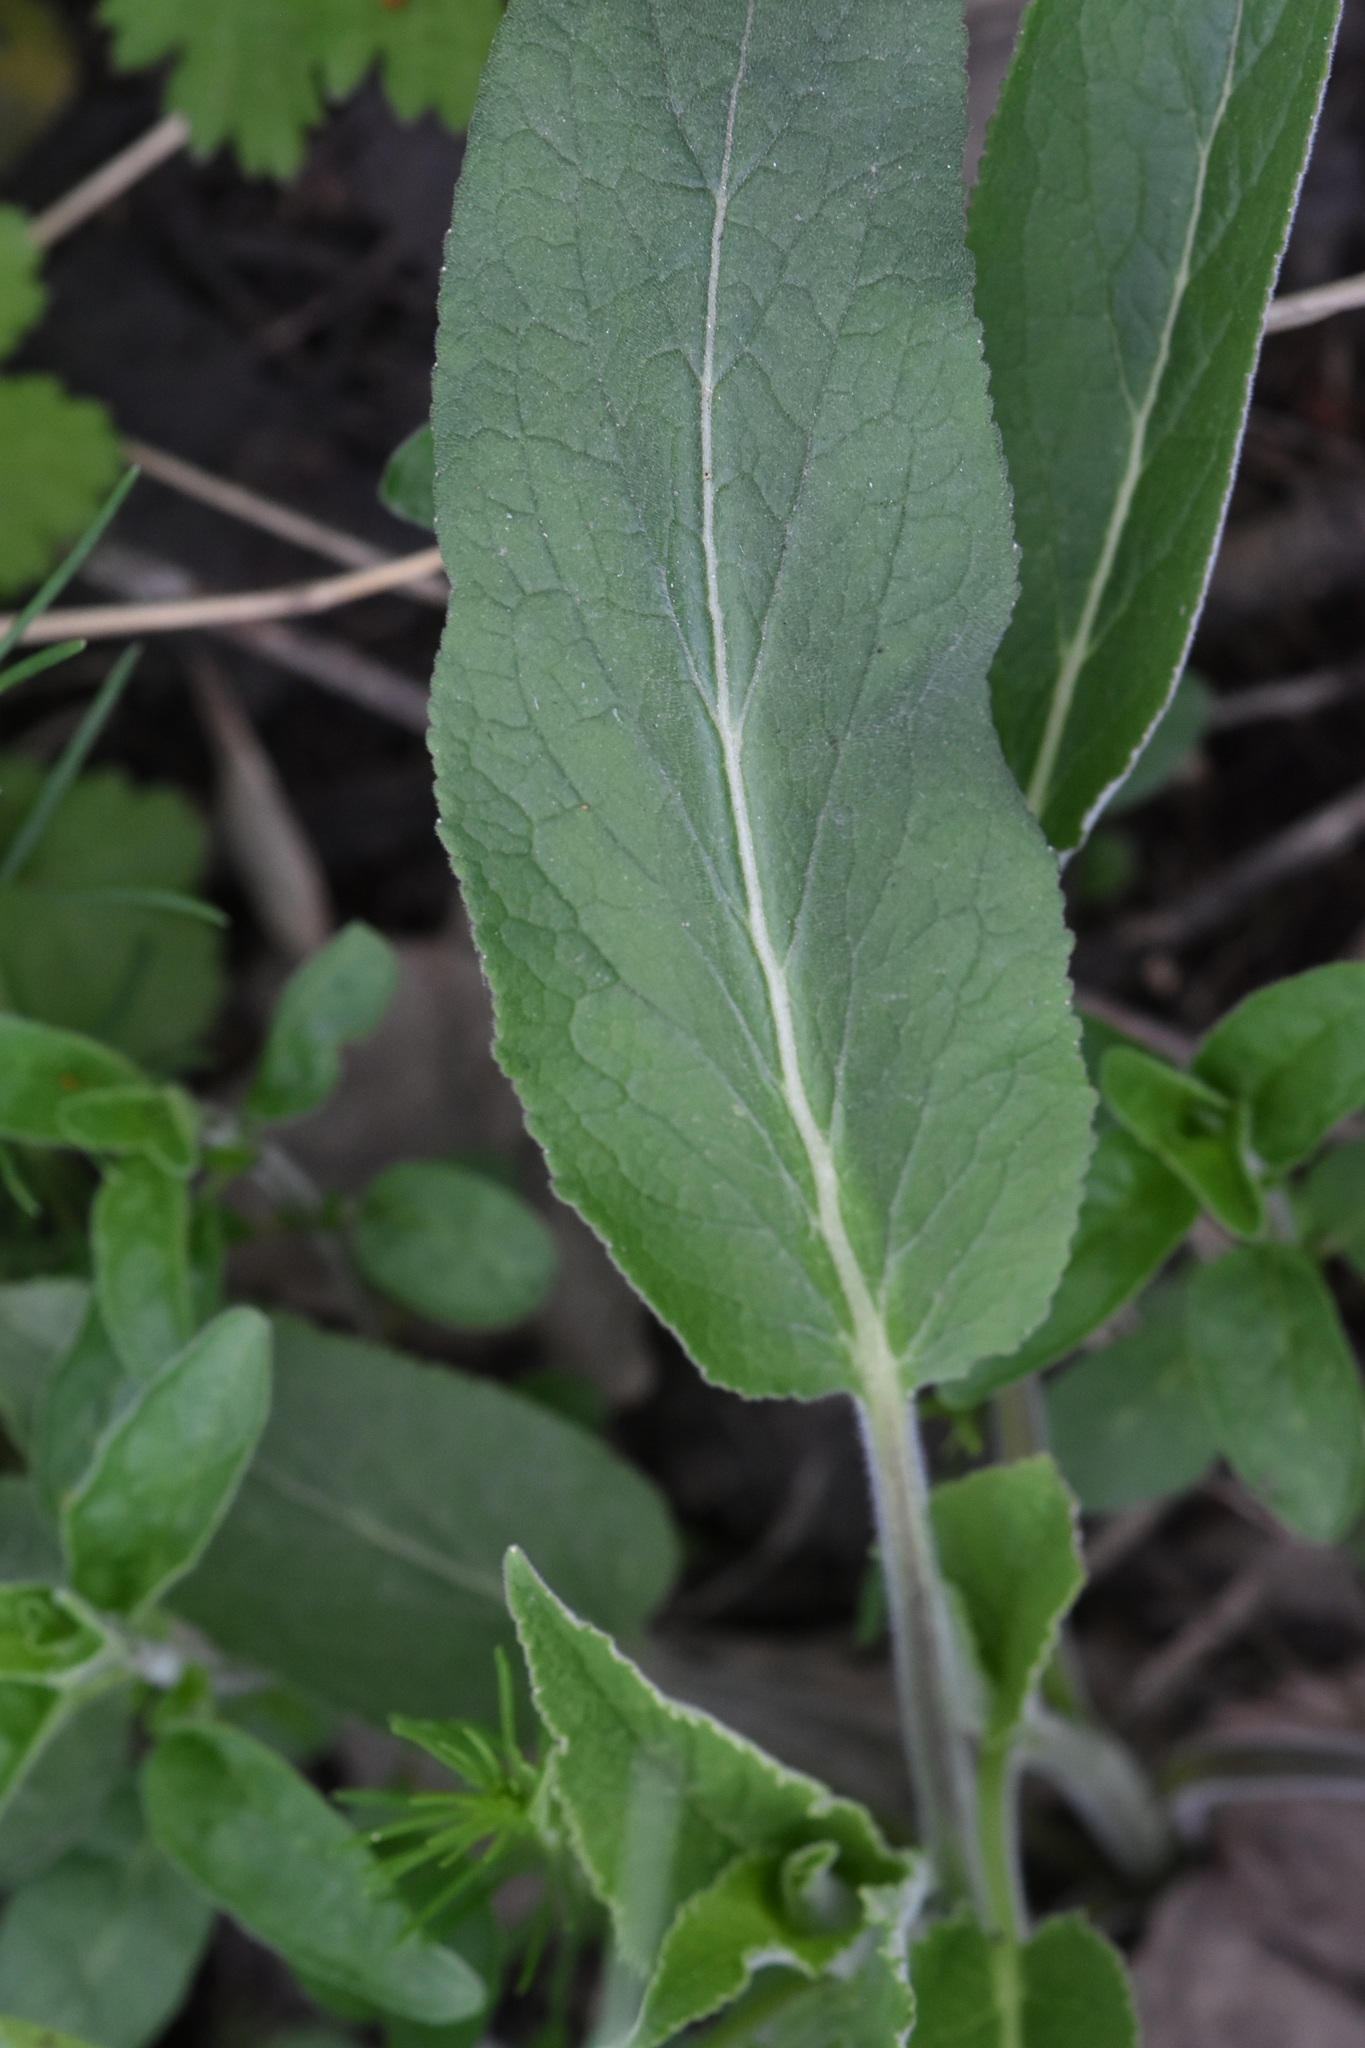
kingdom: Plantae
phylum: Tracheophyta
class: Magnoliopsida
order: Asterales
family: Campanulaceae
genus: Campanula
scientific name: Campanula bononiensis
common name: Pale bellflower
